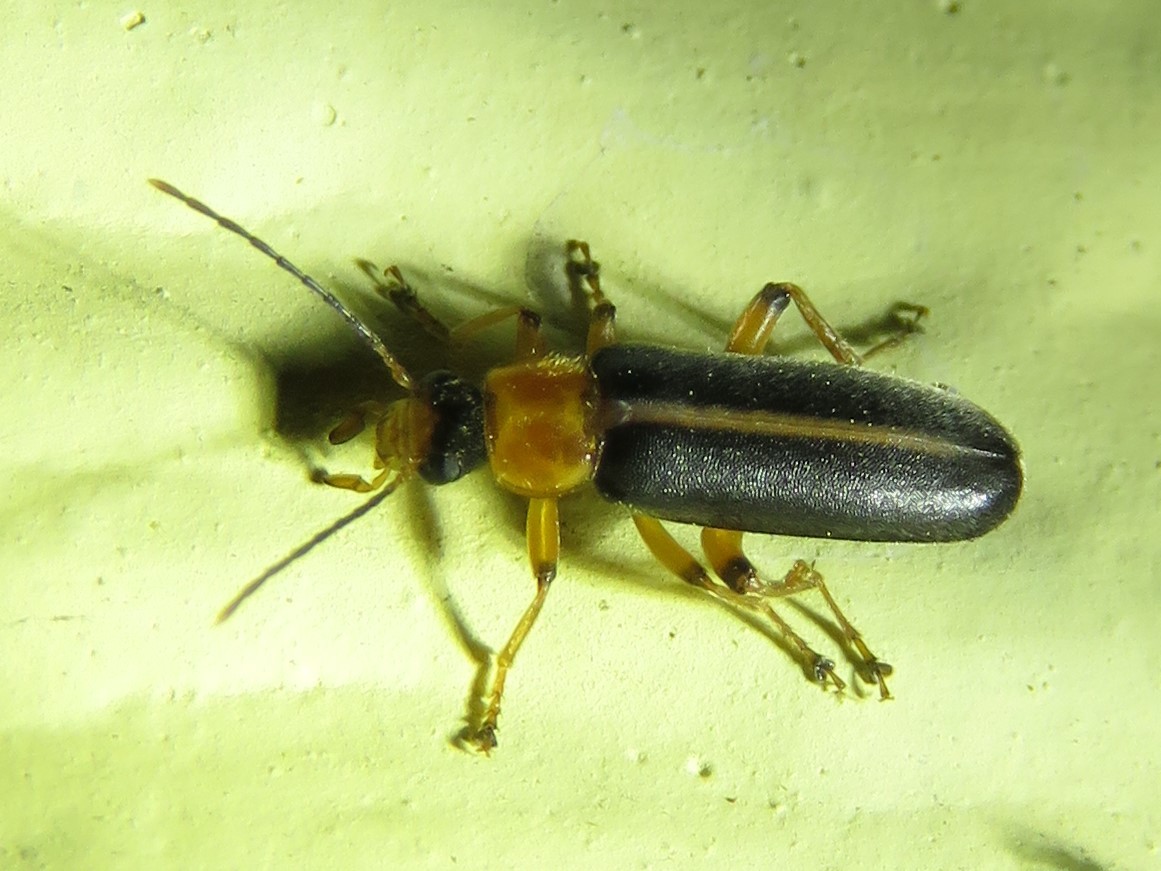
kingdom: Animalia
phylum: Arthropoda
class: Insecta
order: Coleoptera
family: Melandryidae
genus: Osphya
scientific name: Osphya varians
